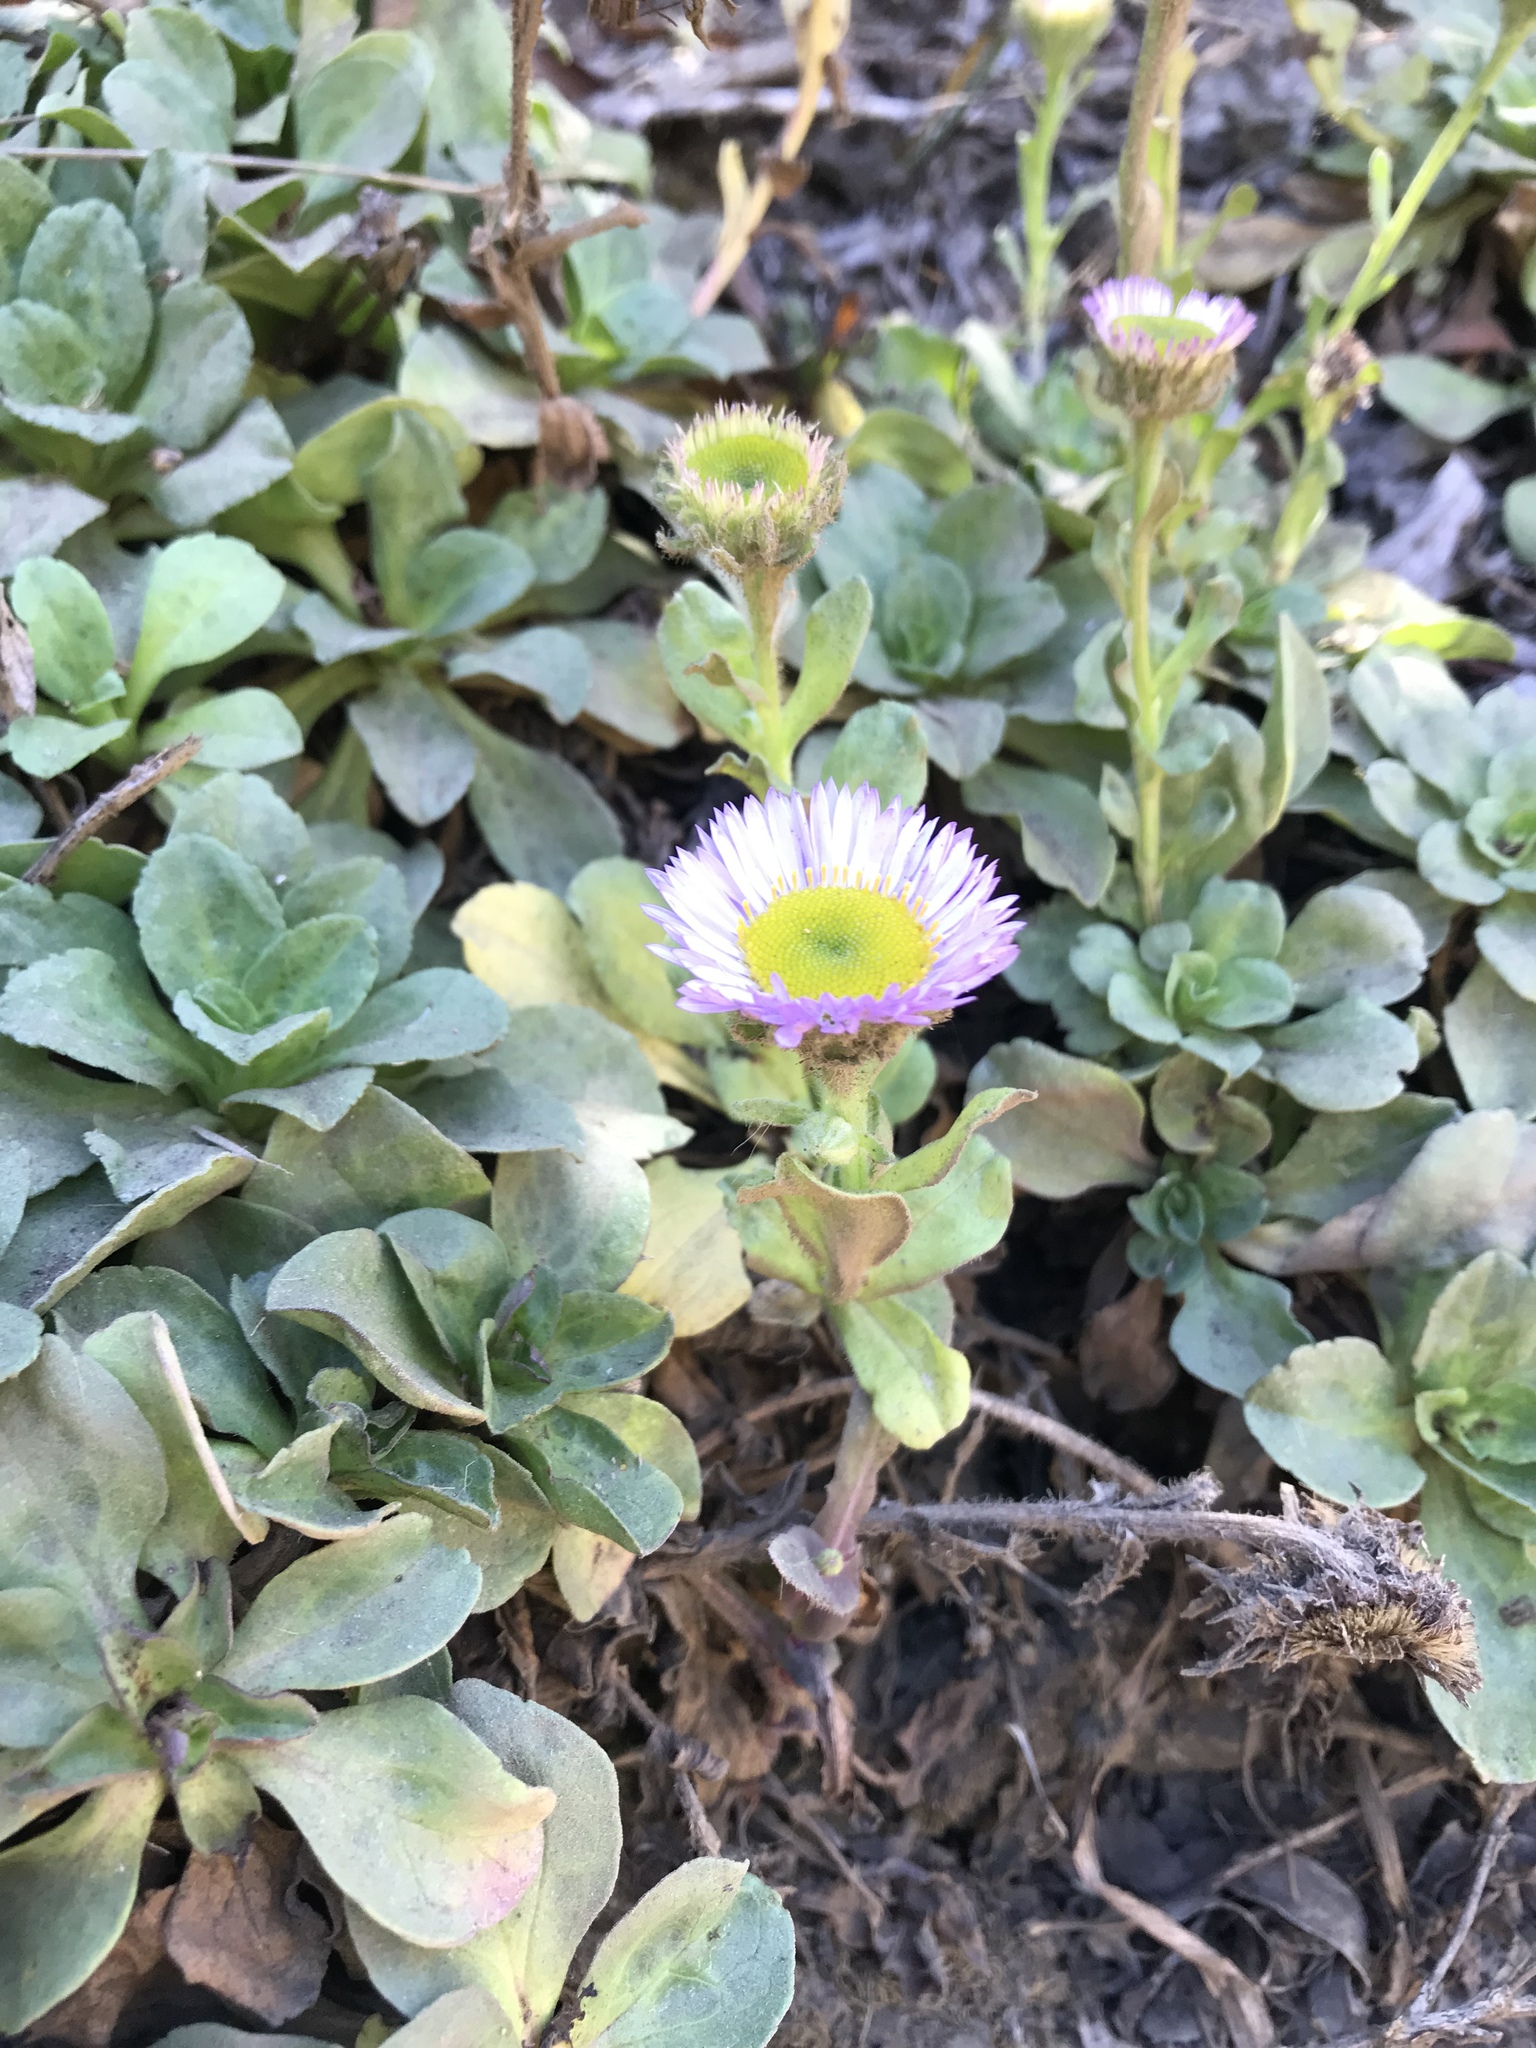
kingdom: Plantae
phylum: Tracheophyta
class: Magnoliopsida
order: Asterales
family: Asteraceae
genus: Erigeron
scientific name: Erigeron glaucus
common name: Seaside daisy
